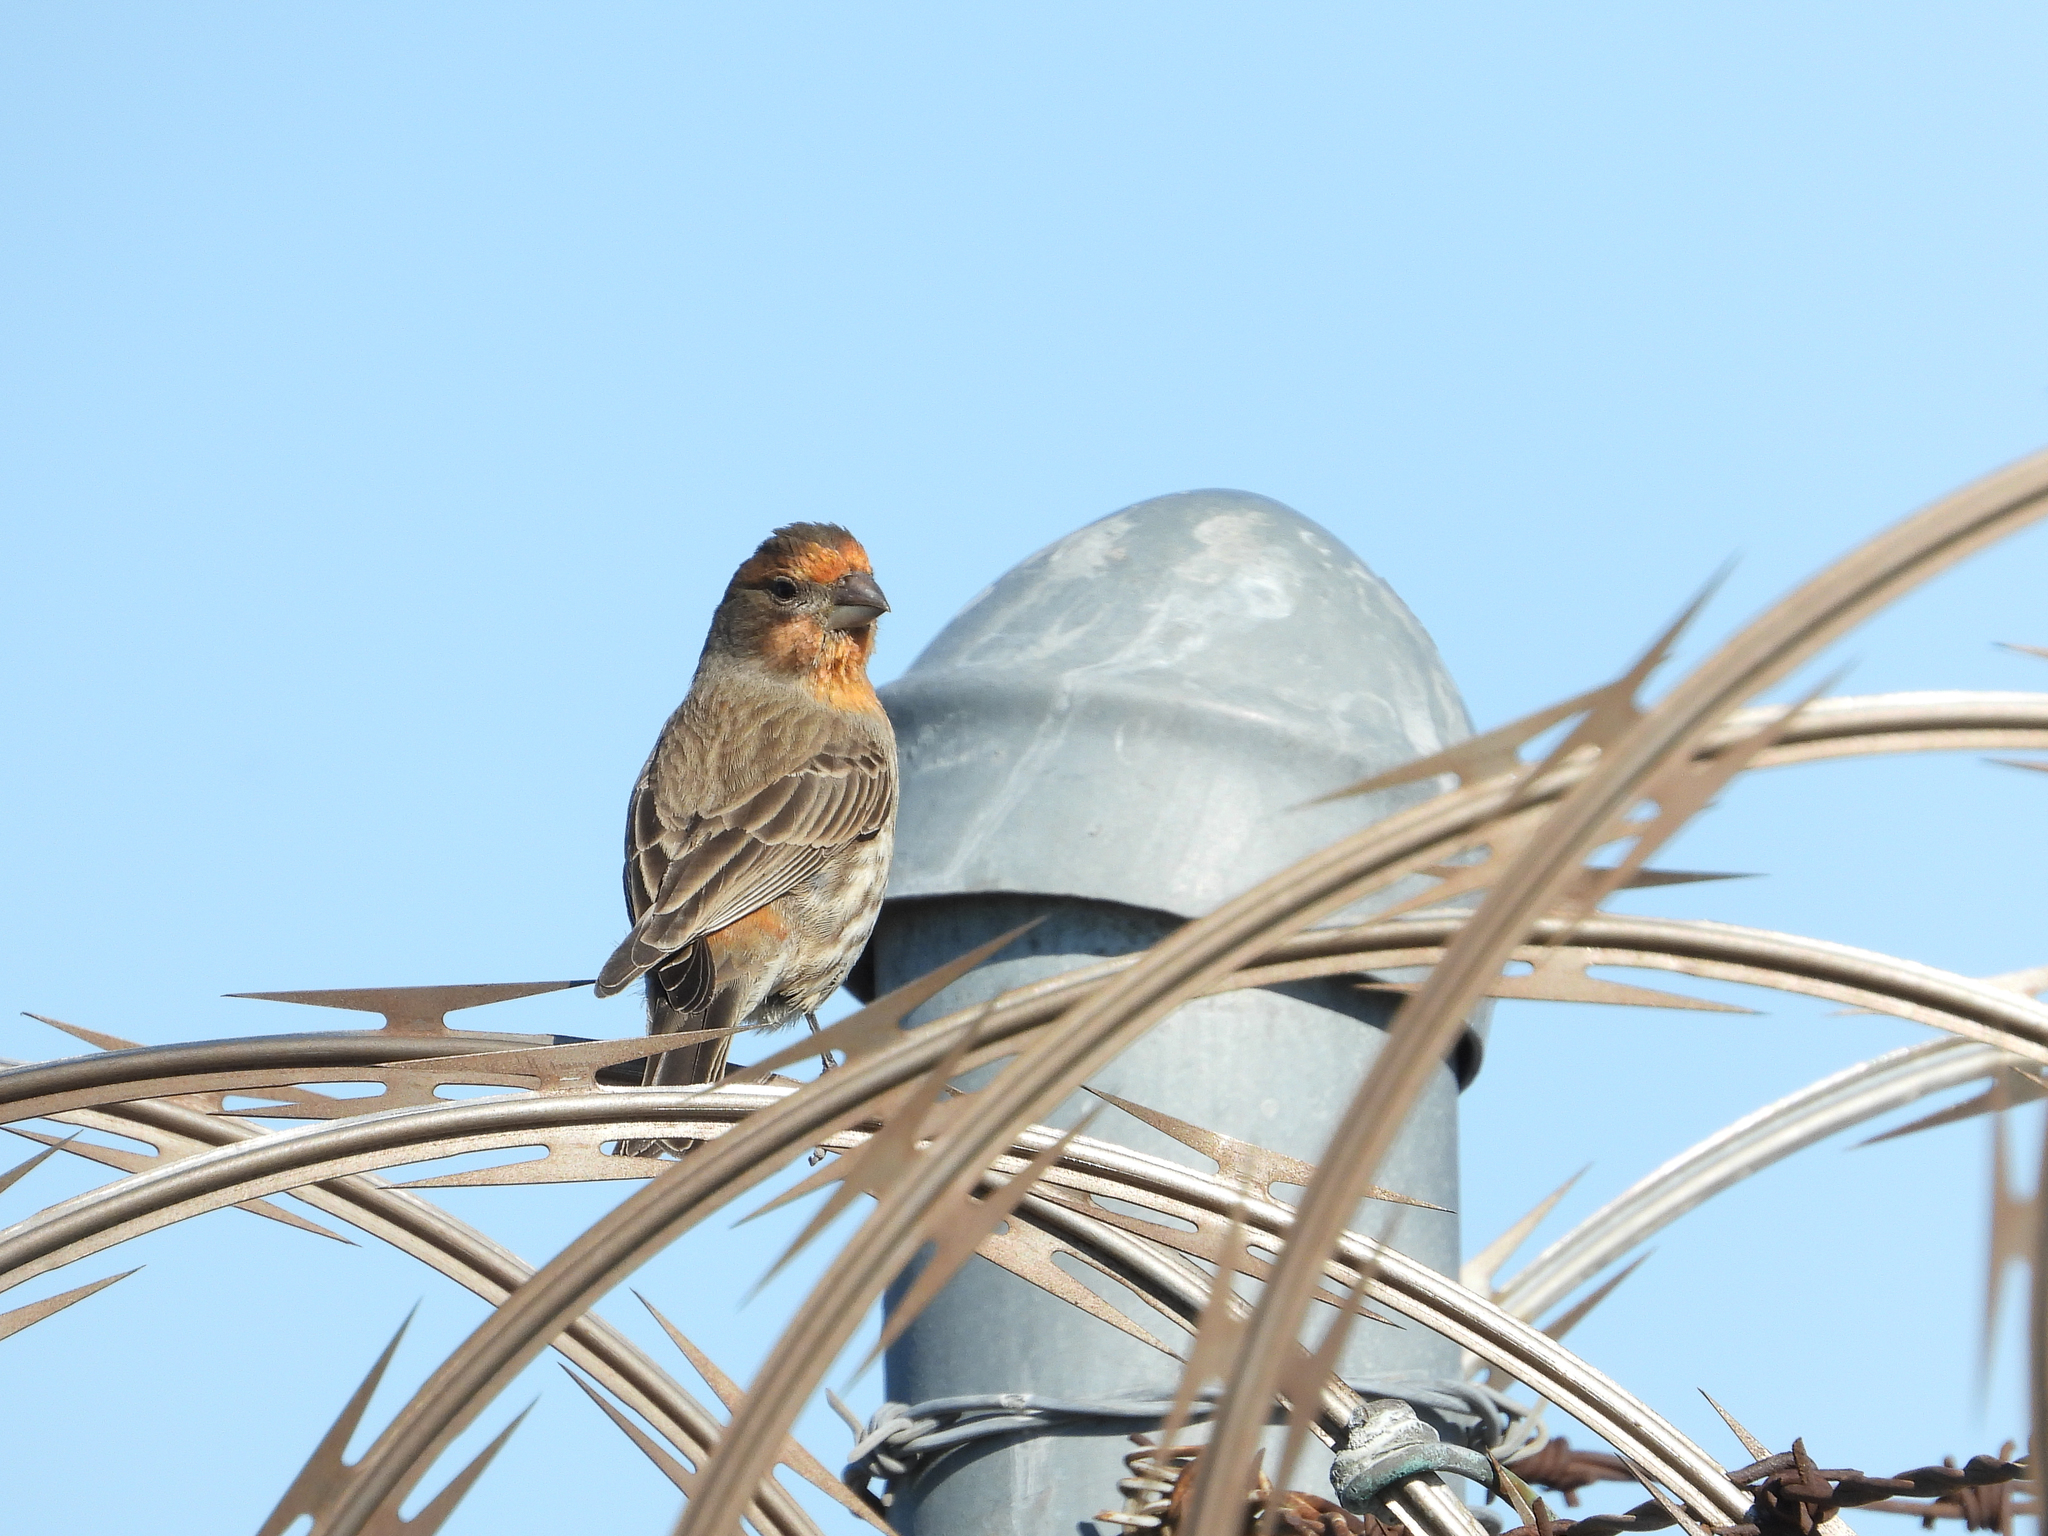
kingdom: Animalia
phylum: Chordata
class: Aves
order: Passeriformes
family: Fringillidae
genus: Haemorhous
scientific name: Haemorhous mexicanus
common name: House finch
